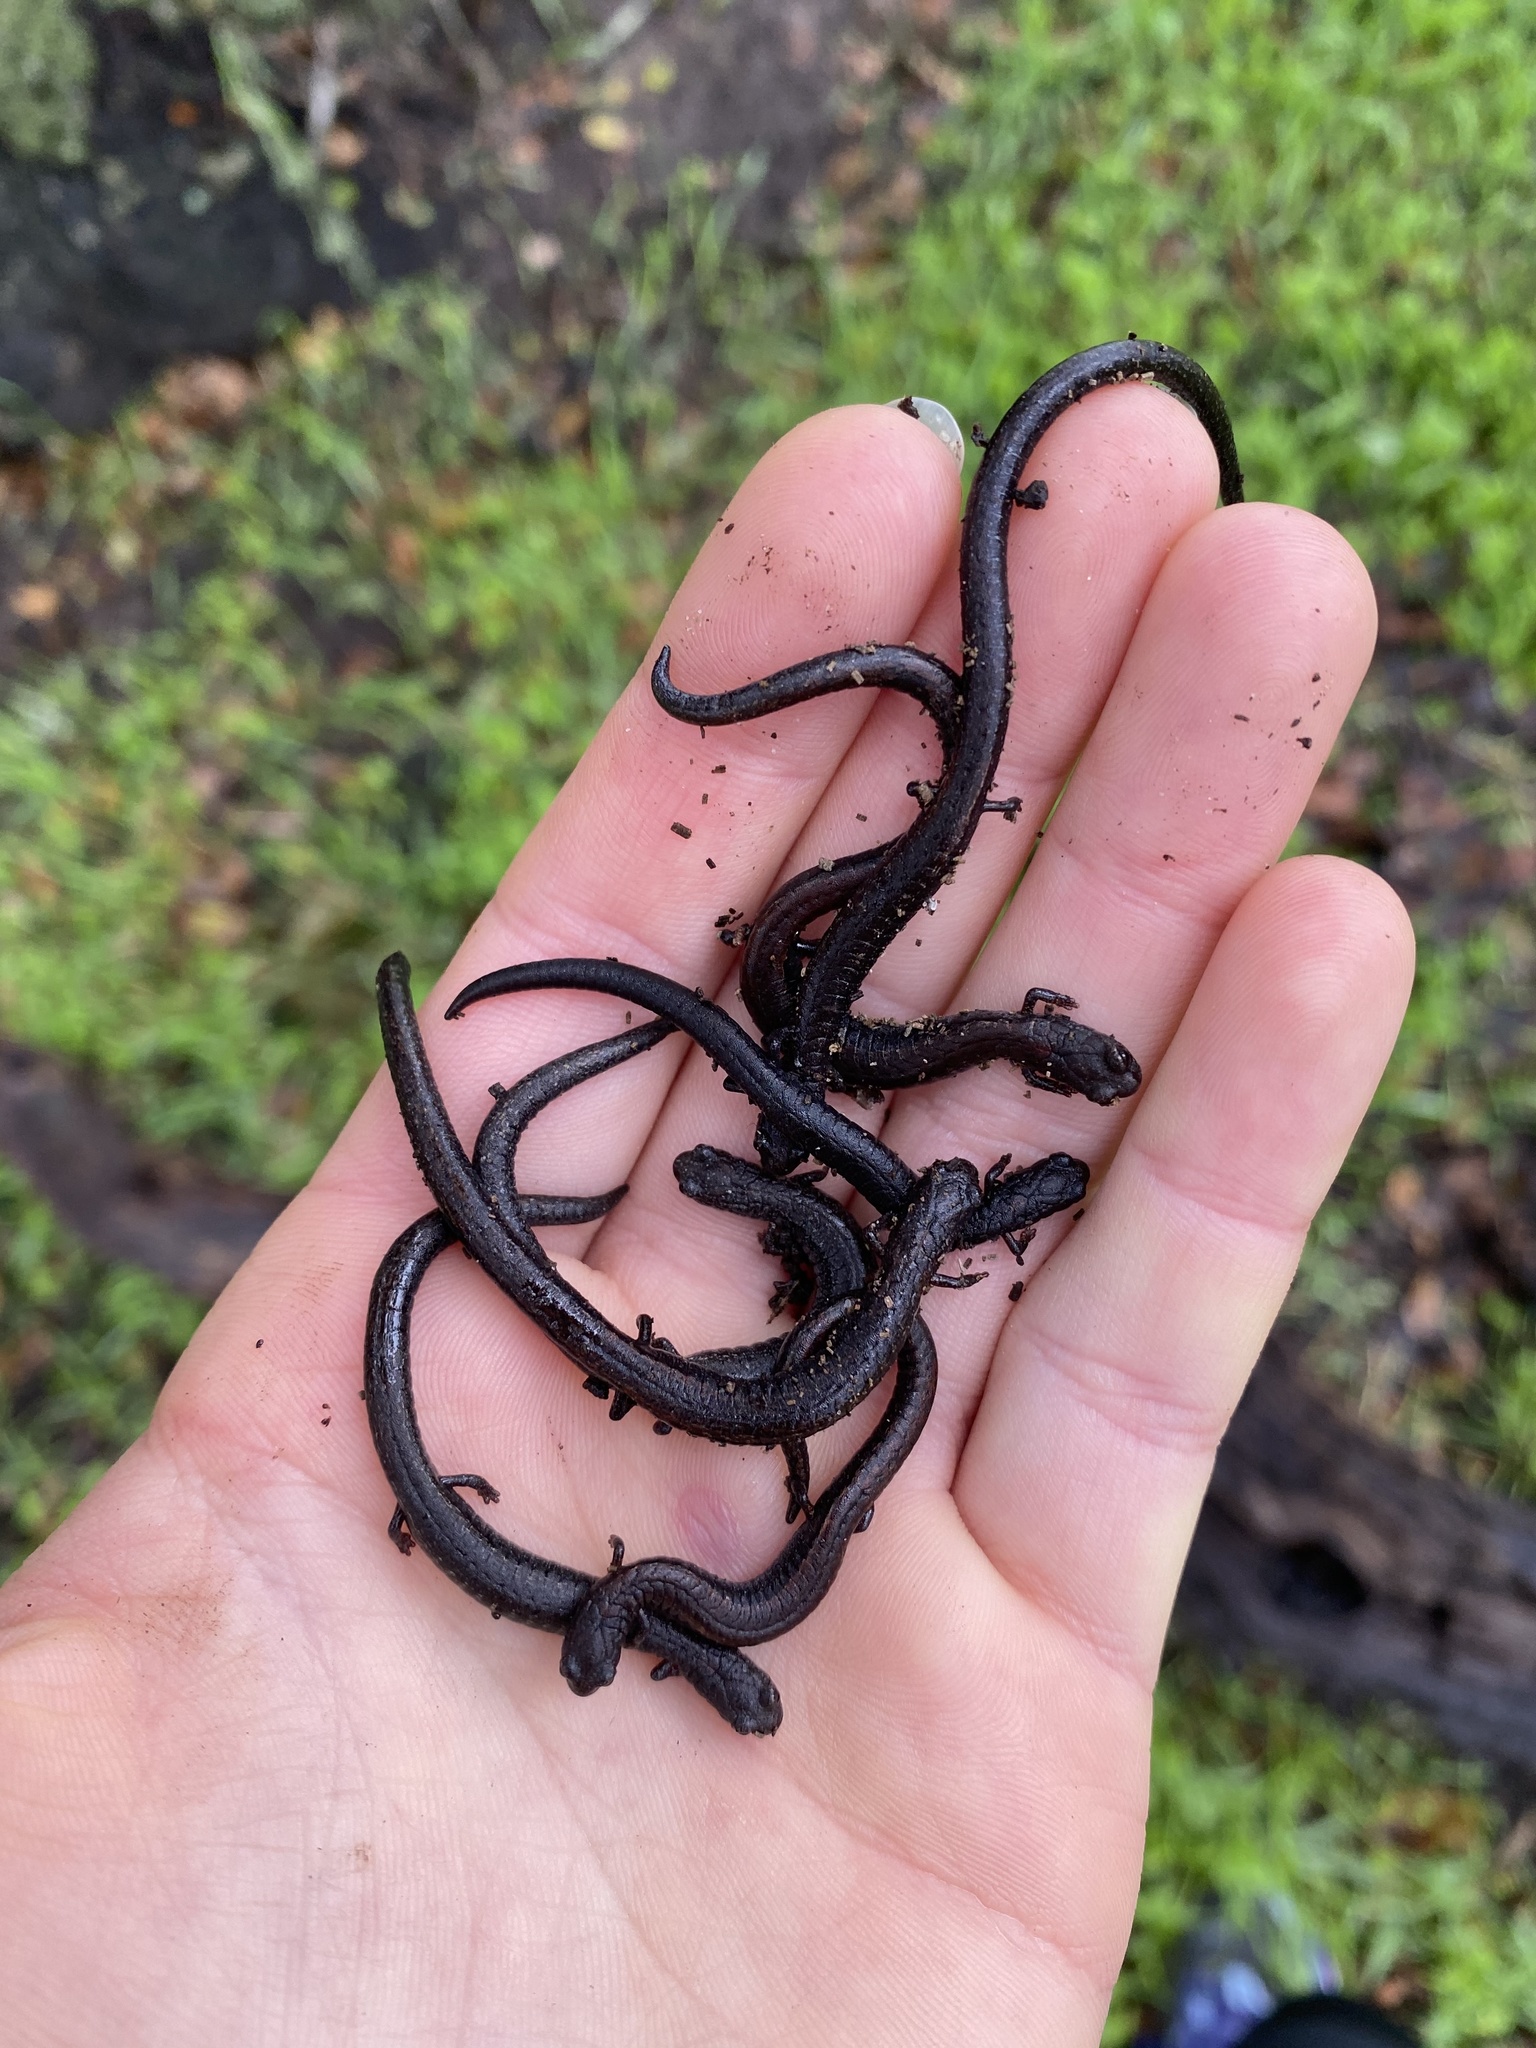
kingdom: Animalia
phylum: Chordata
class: Amphibia
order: Caudata
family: Plethodontidae
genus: Batrachoseps
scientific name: Batrachoseps attenuatus
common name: California slender salamander
